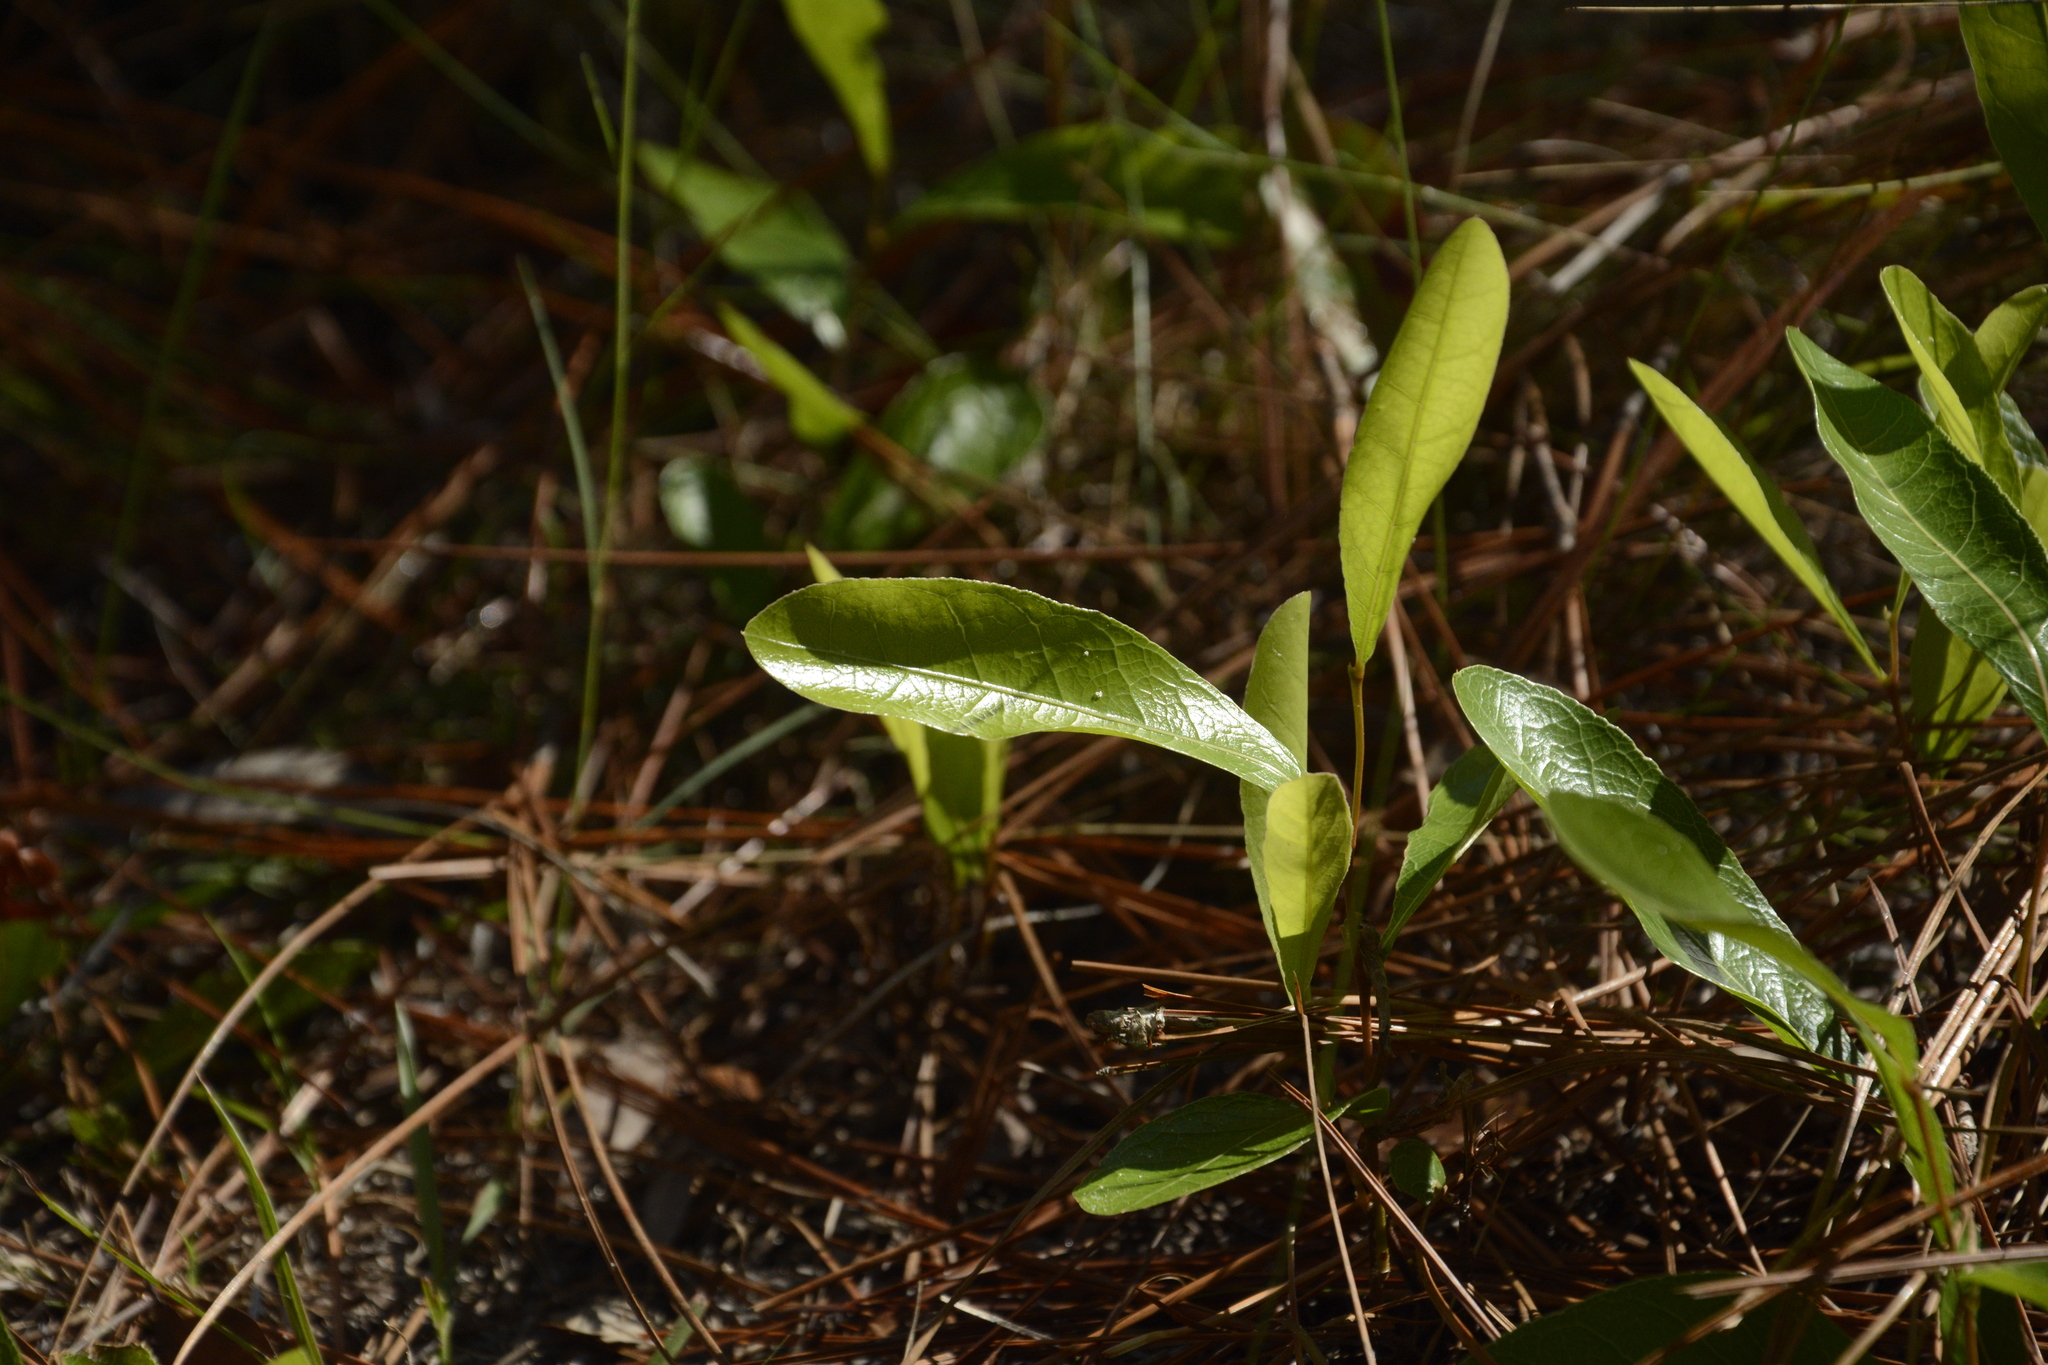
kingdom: Plantae
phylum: Tracheophyta
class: Magnoliopsida
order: Malpighiales
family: Chrysobalanaceae
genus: Geobalanus
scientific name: Geobalanus oblongifolius
